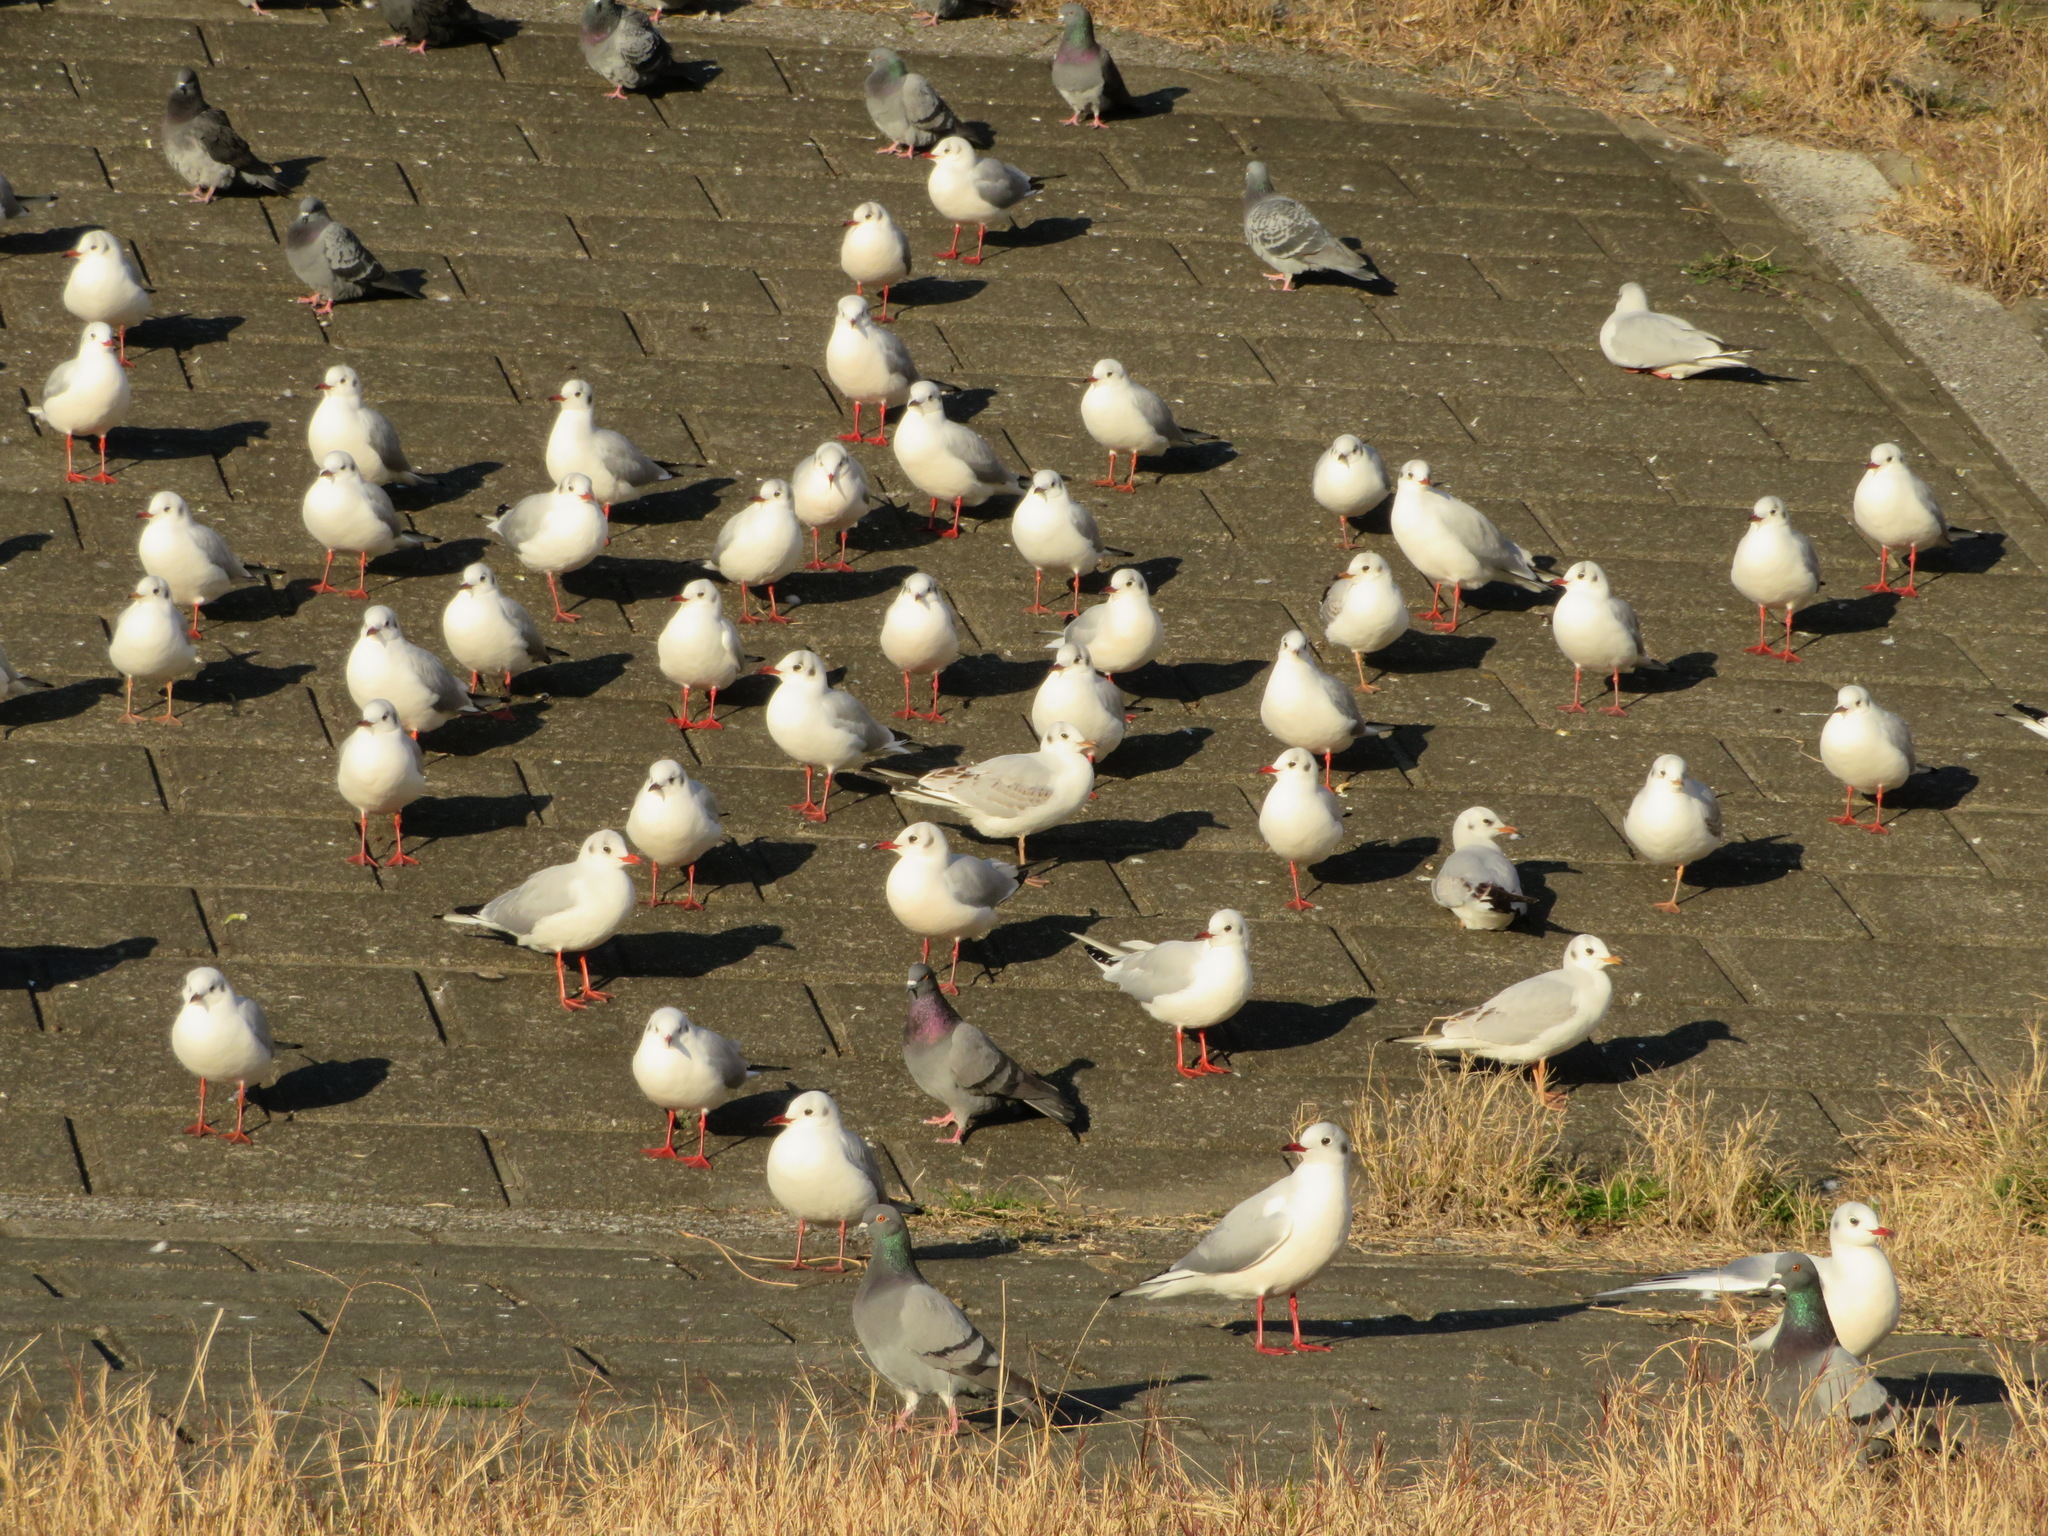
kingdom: Animalia
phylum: Chordata
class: Aves
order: Charadriiformes
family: Laridae
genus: Chroicocephalus
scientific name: Chroicocephalus ridibundus
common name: Black-headed gull
